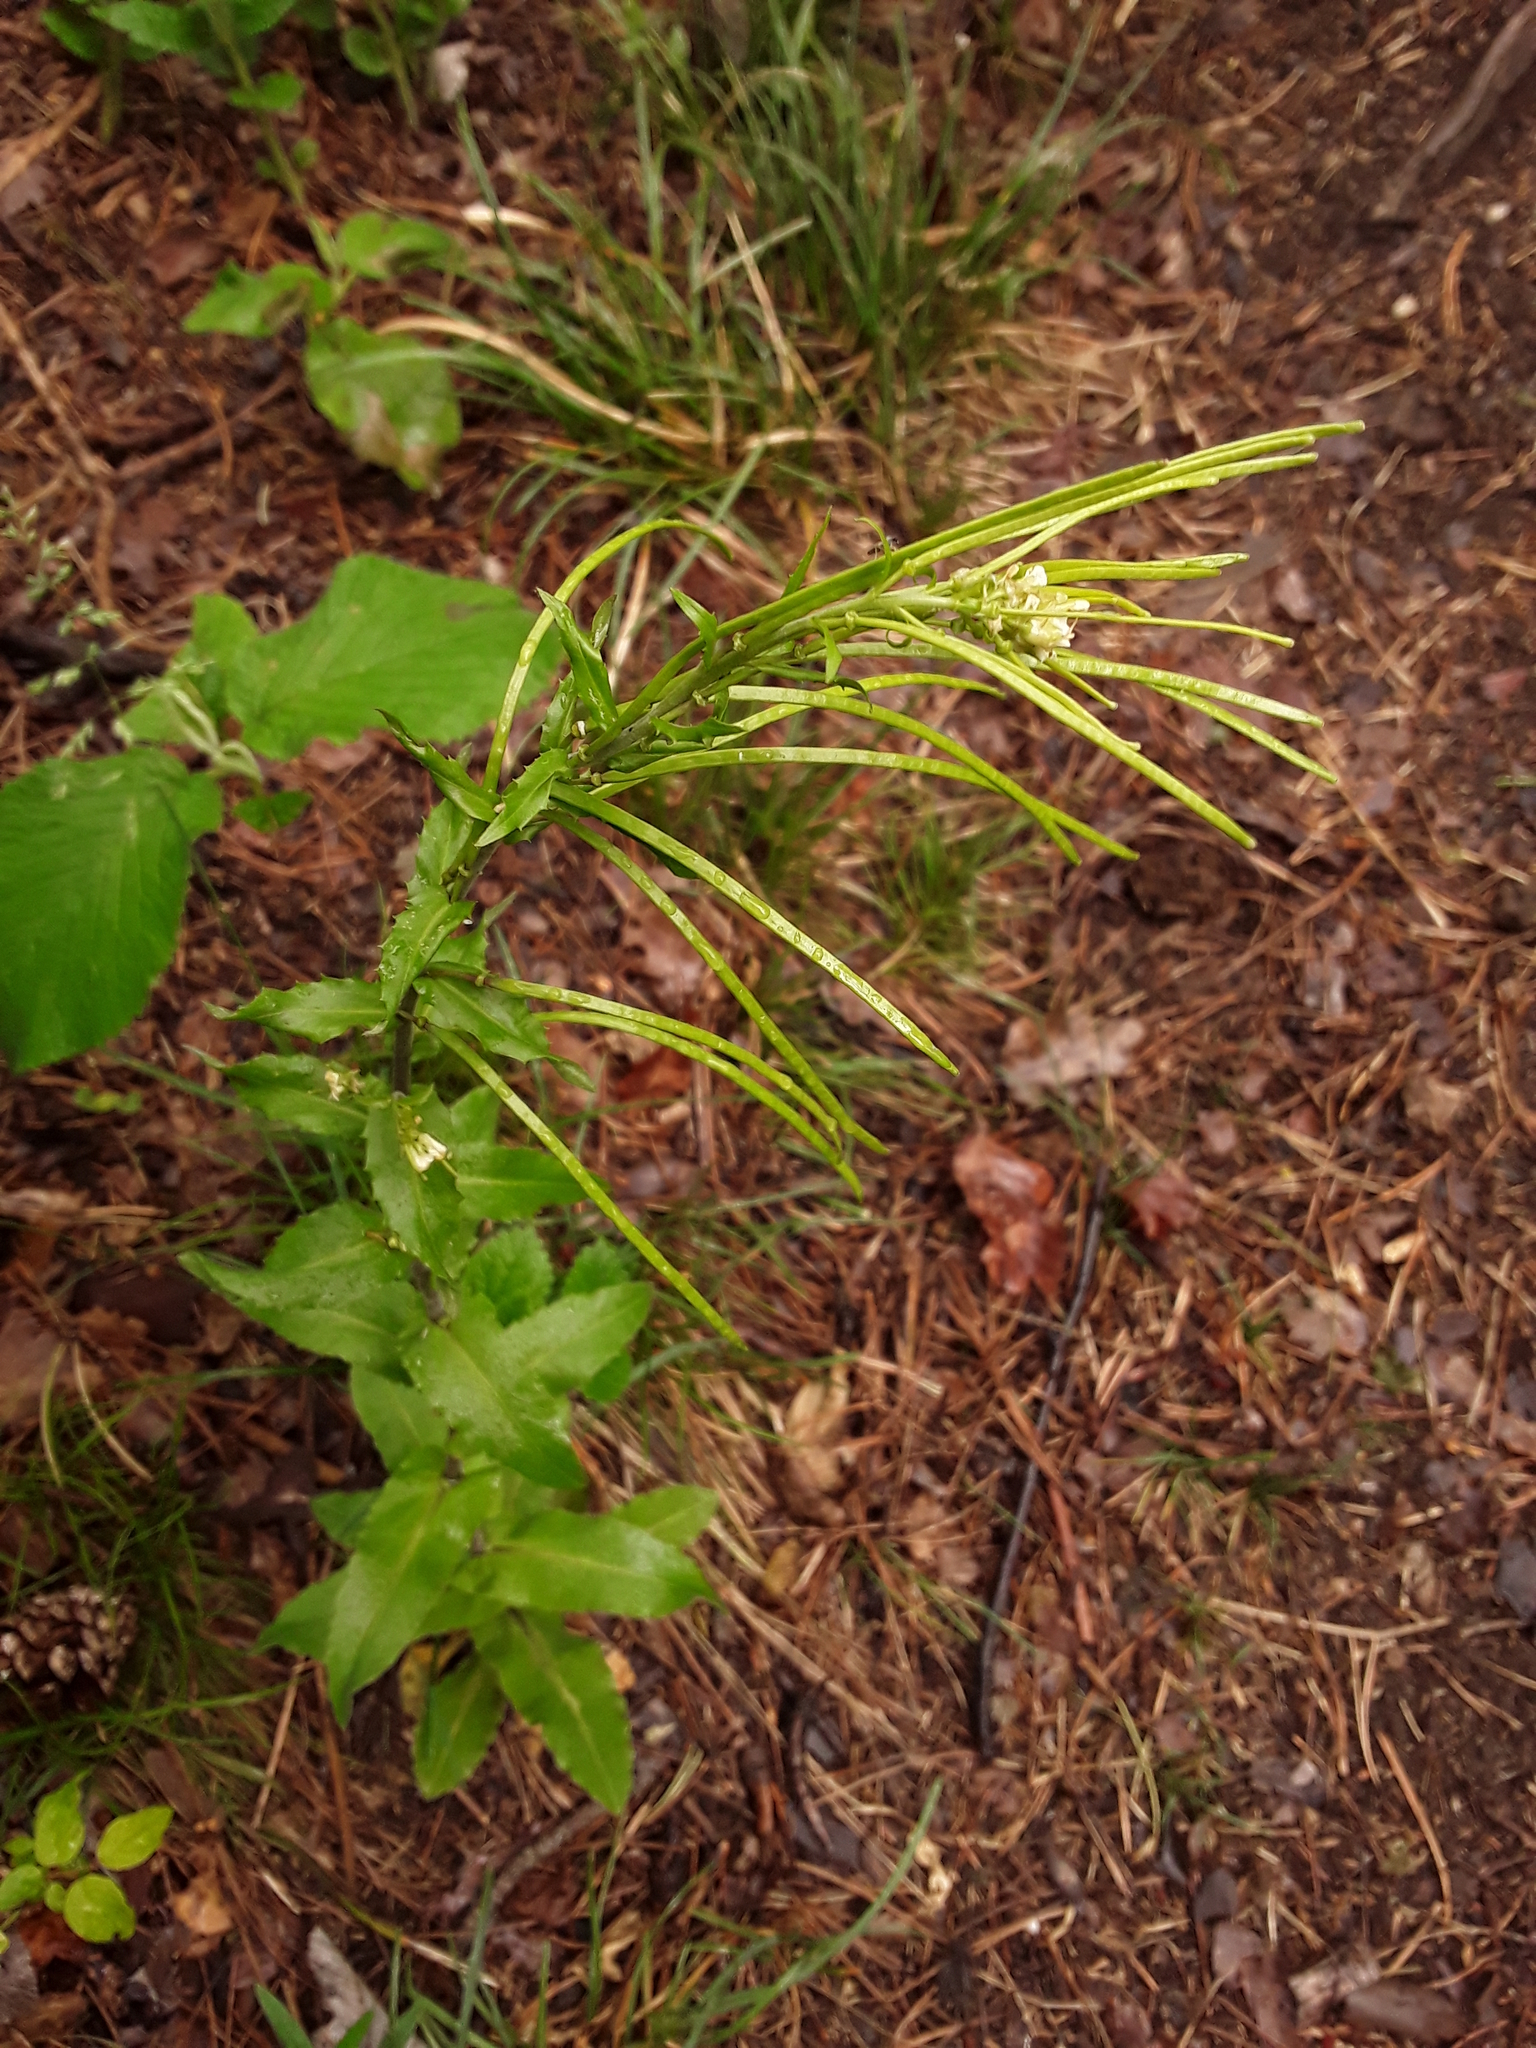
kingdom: Plantae
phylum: Tracheophyta
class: Magnoliopsida
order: Brassicales
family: Brassicaceae
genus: Pseudoturritis
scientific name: Pseudoturritis turrita
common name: Tower cress
